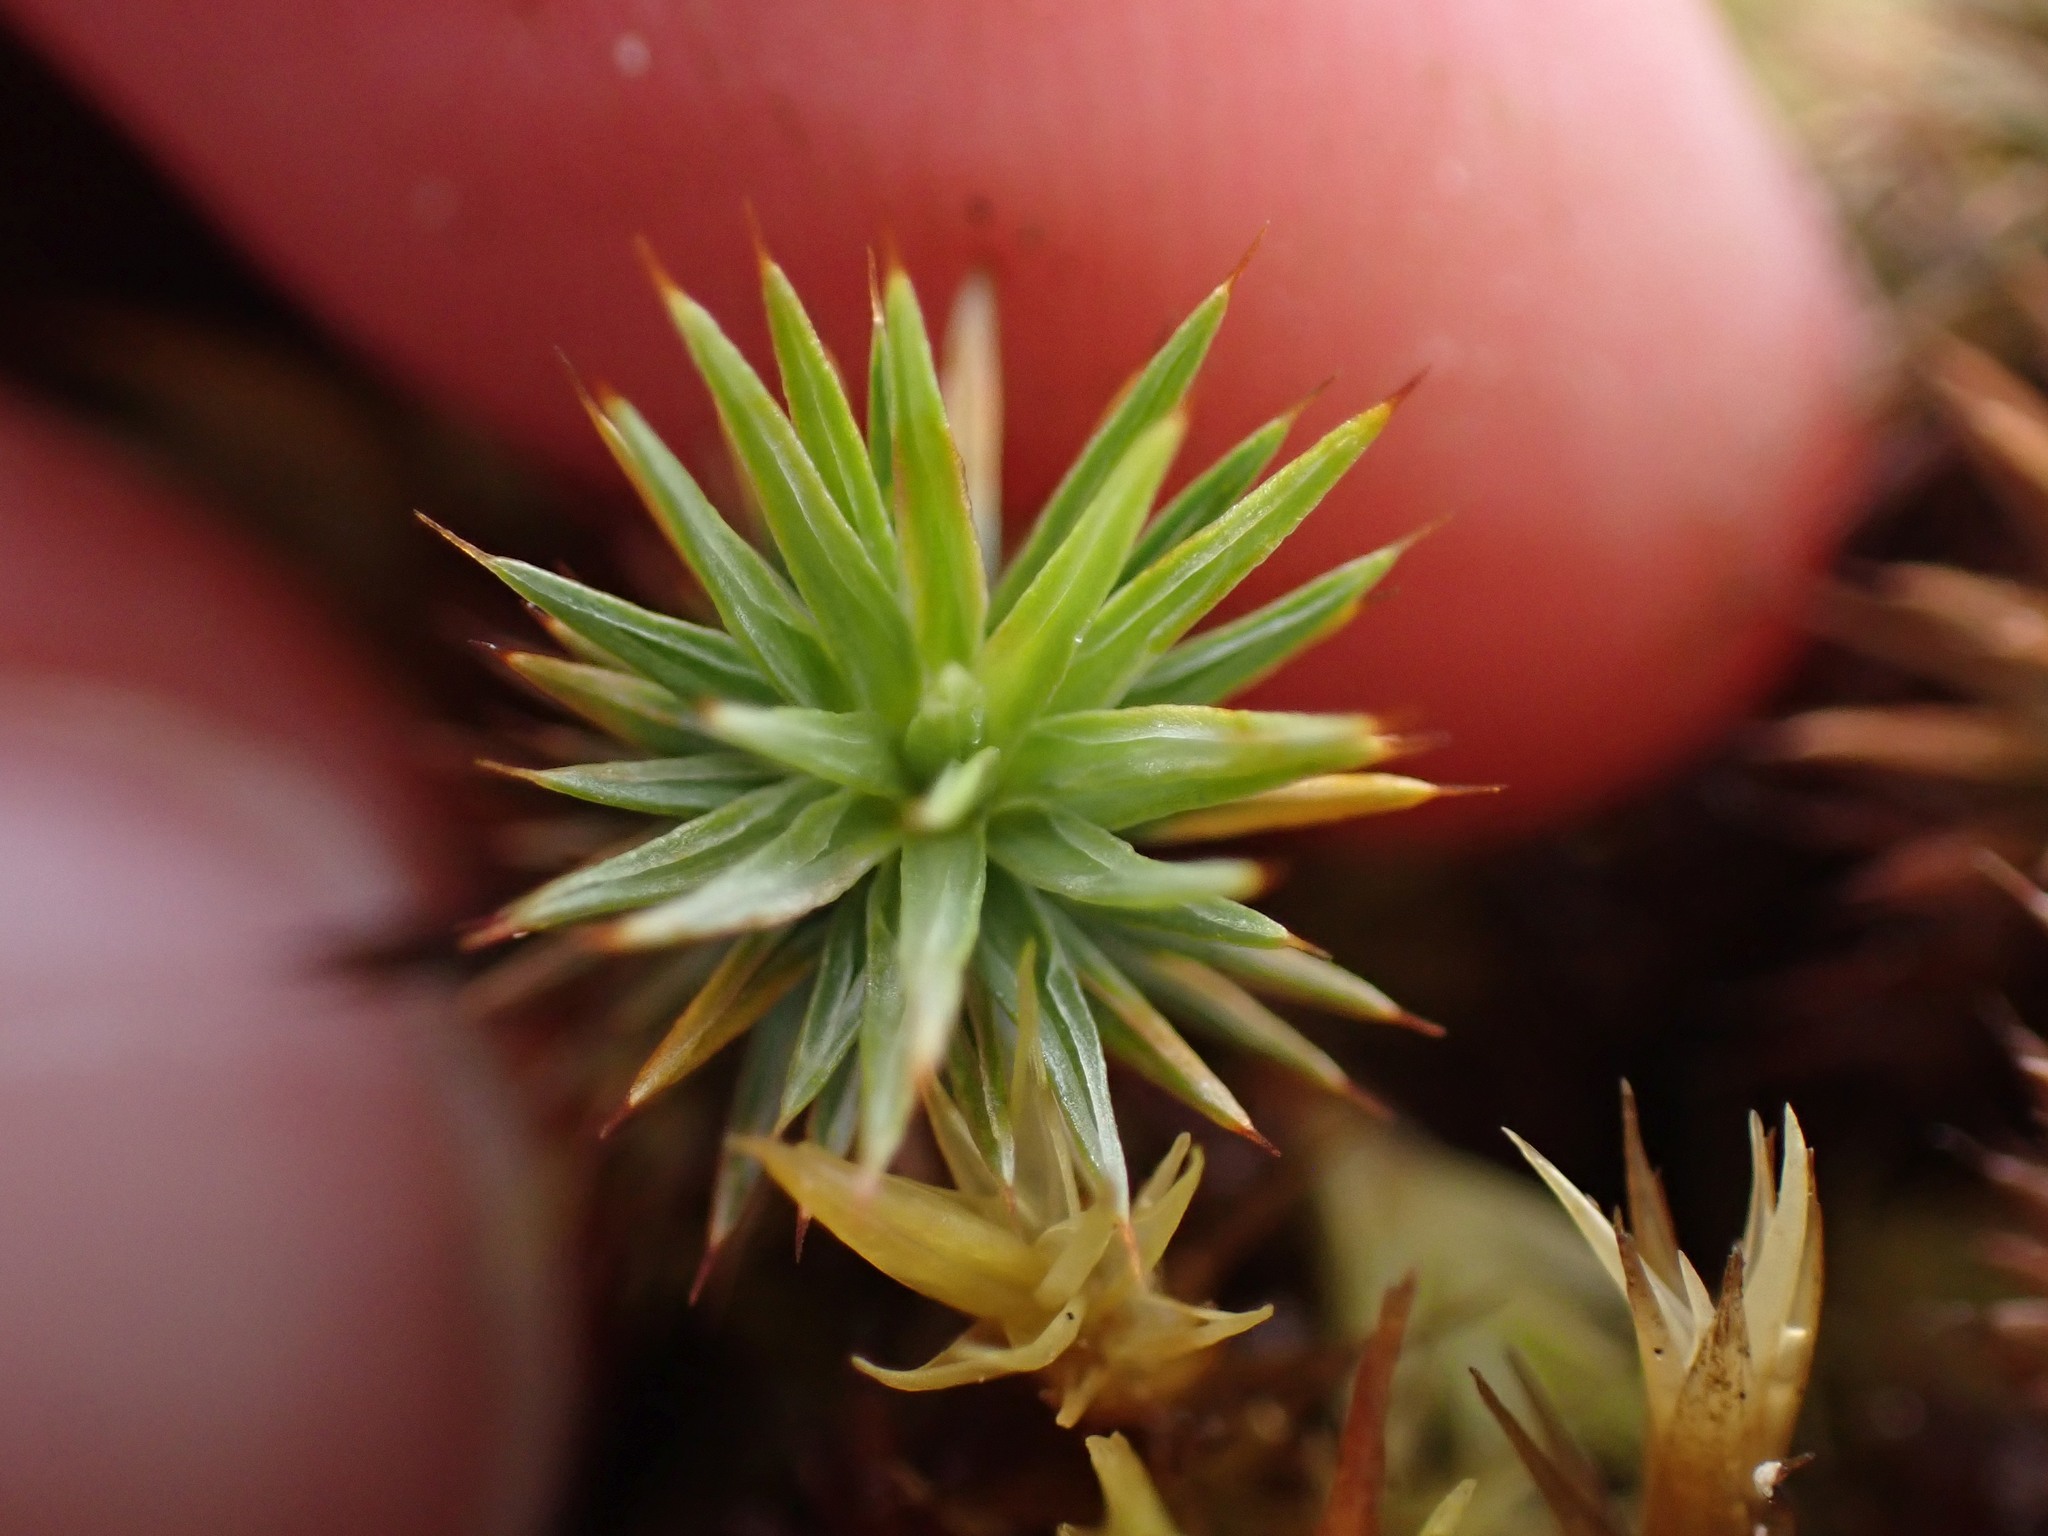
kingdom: Plantae
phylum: Bryophyta
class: Polytrichopsida
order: Polytrichales
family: Polytrichaceae
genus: Polytrichum
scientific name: Polytrichum juniperinum
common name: Juniper haircap moss
